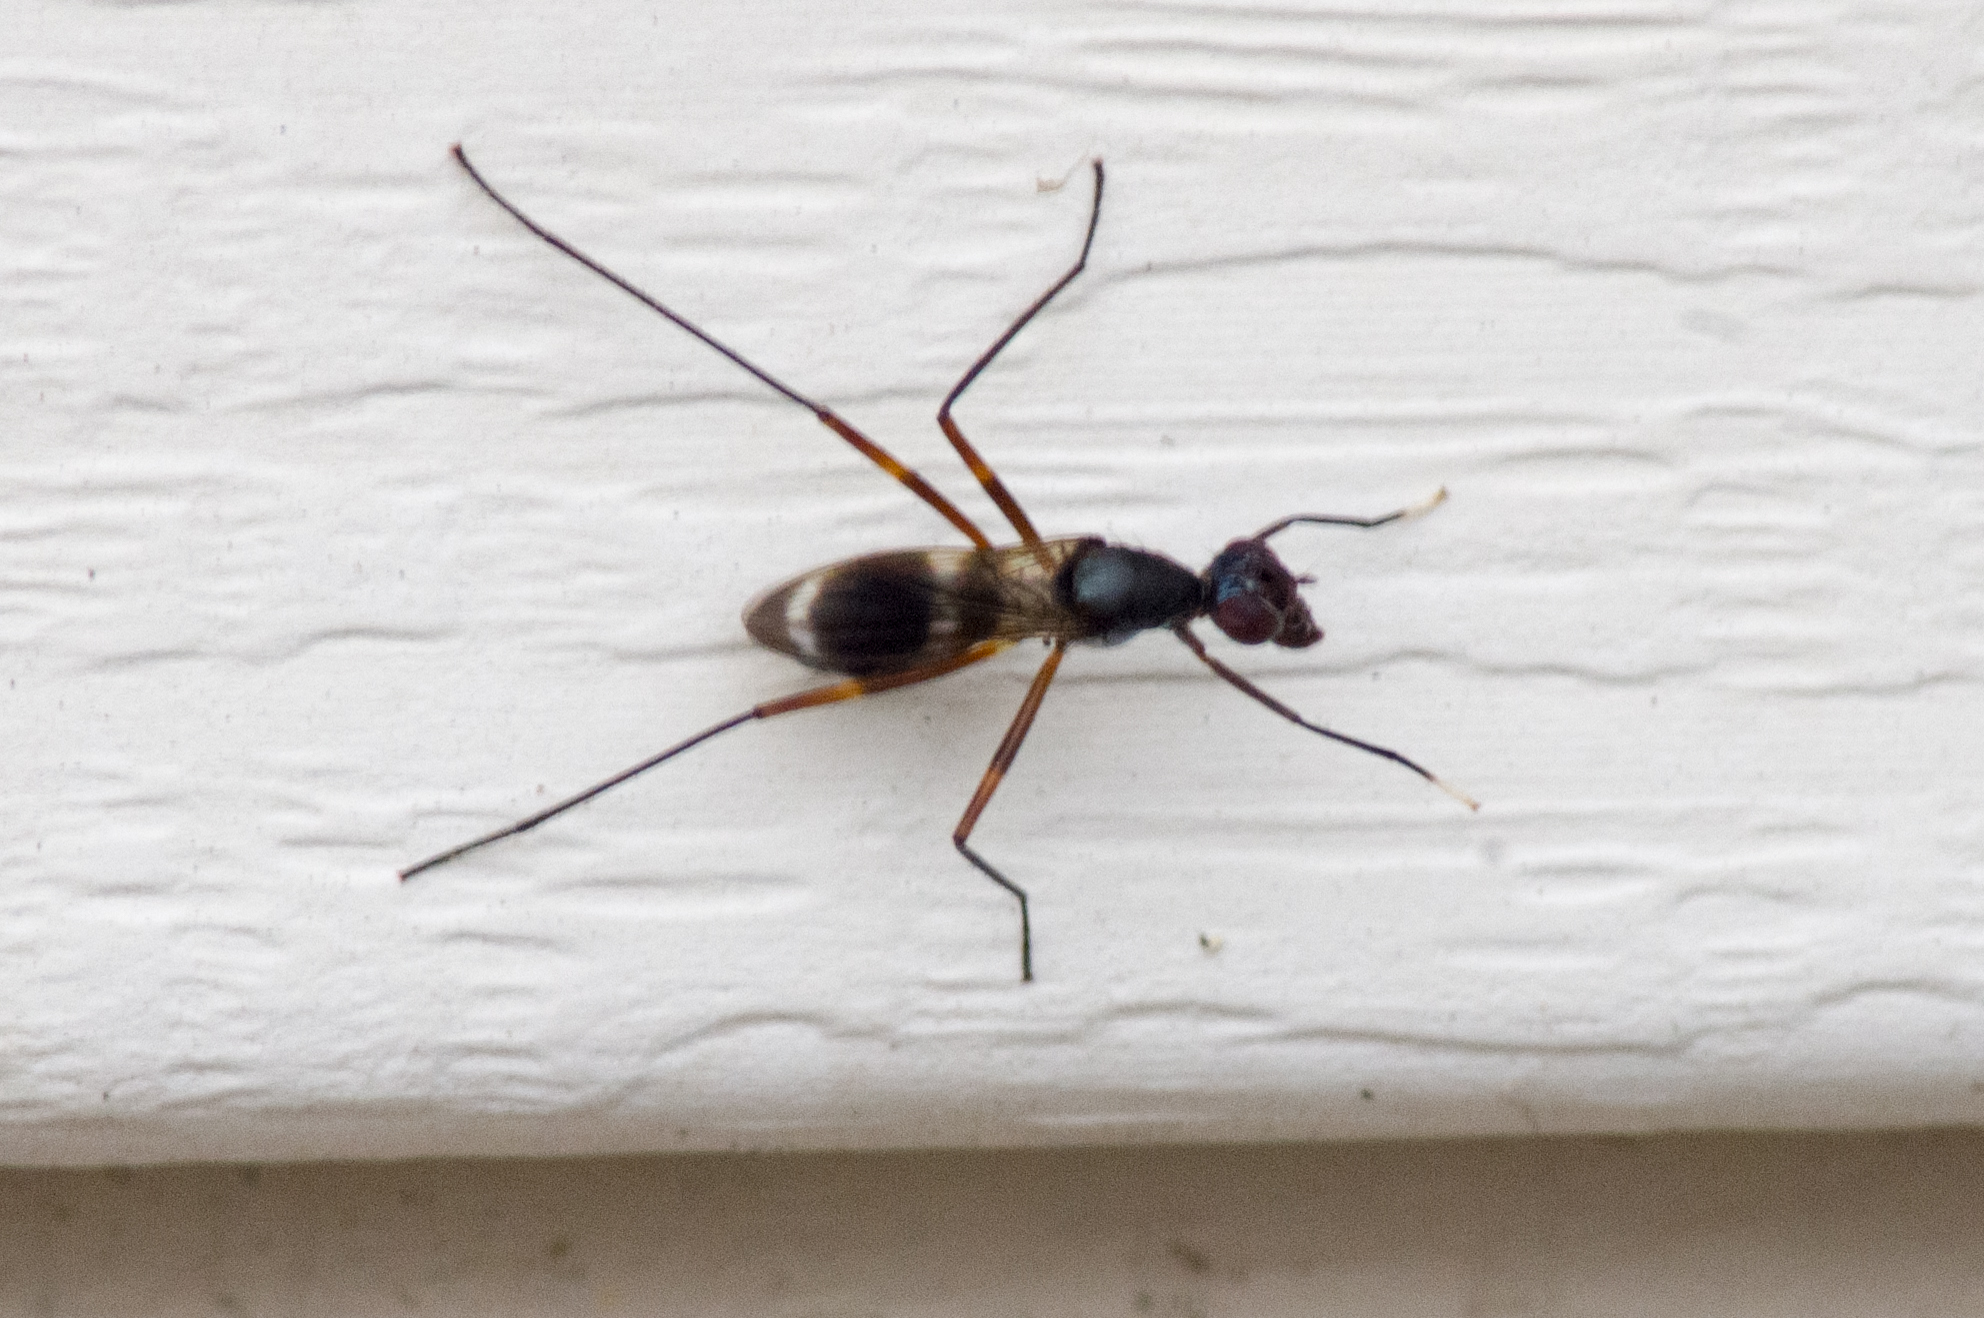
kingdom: Animalia
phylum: Arthropoda
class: Insecta
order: Diptera
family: Micropezidae
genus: Taeniaptera
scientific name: Taeniaptera trivittata
